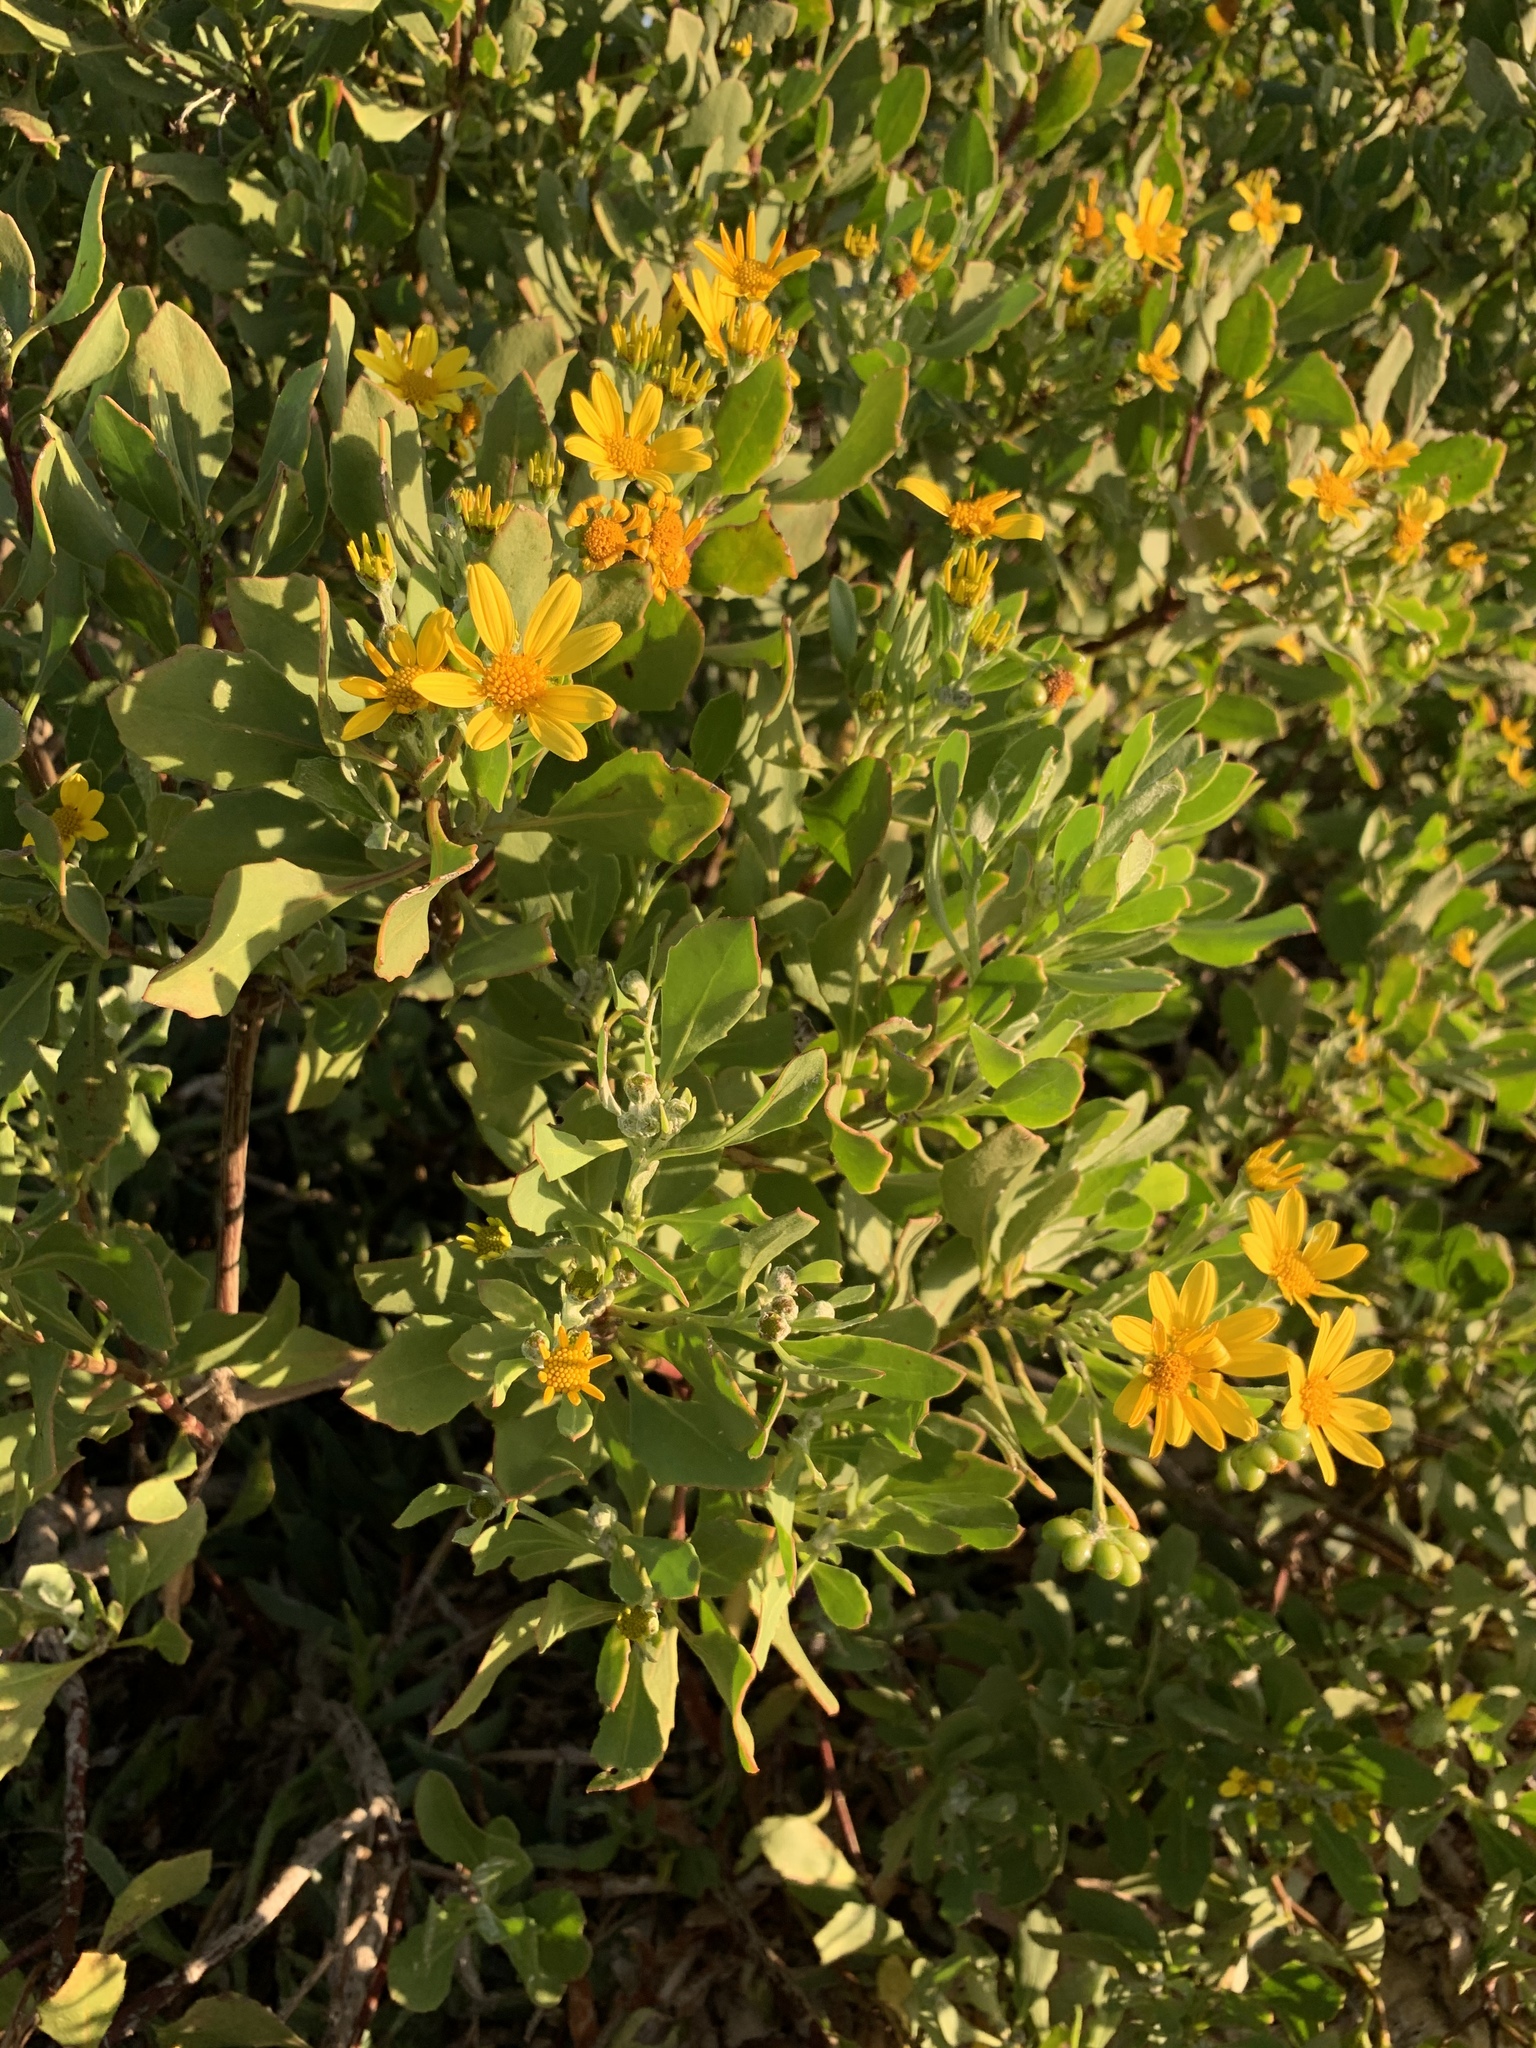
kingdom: Plantae
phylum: Tracheophyta
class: Magnoliopsida
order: Asterales
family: Asteraceae
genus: Osteospermum
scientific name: Osteospermum moniliferum
